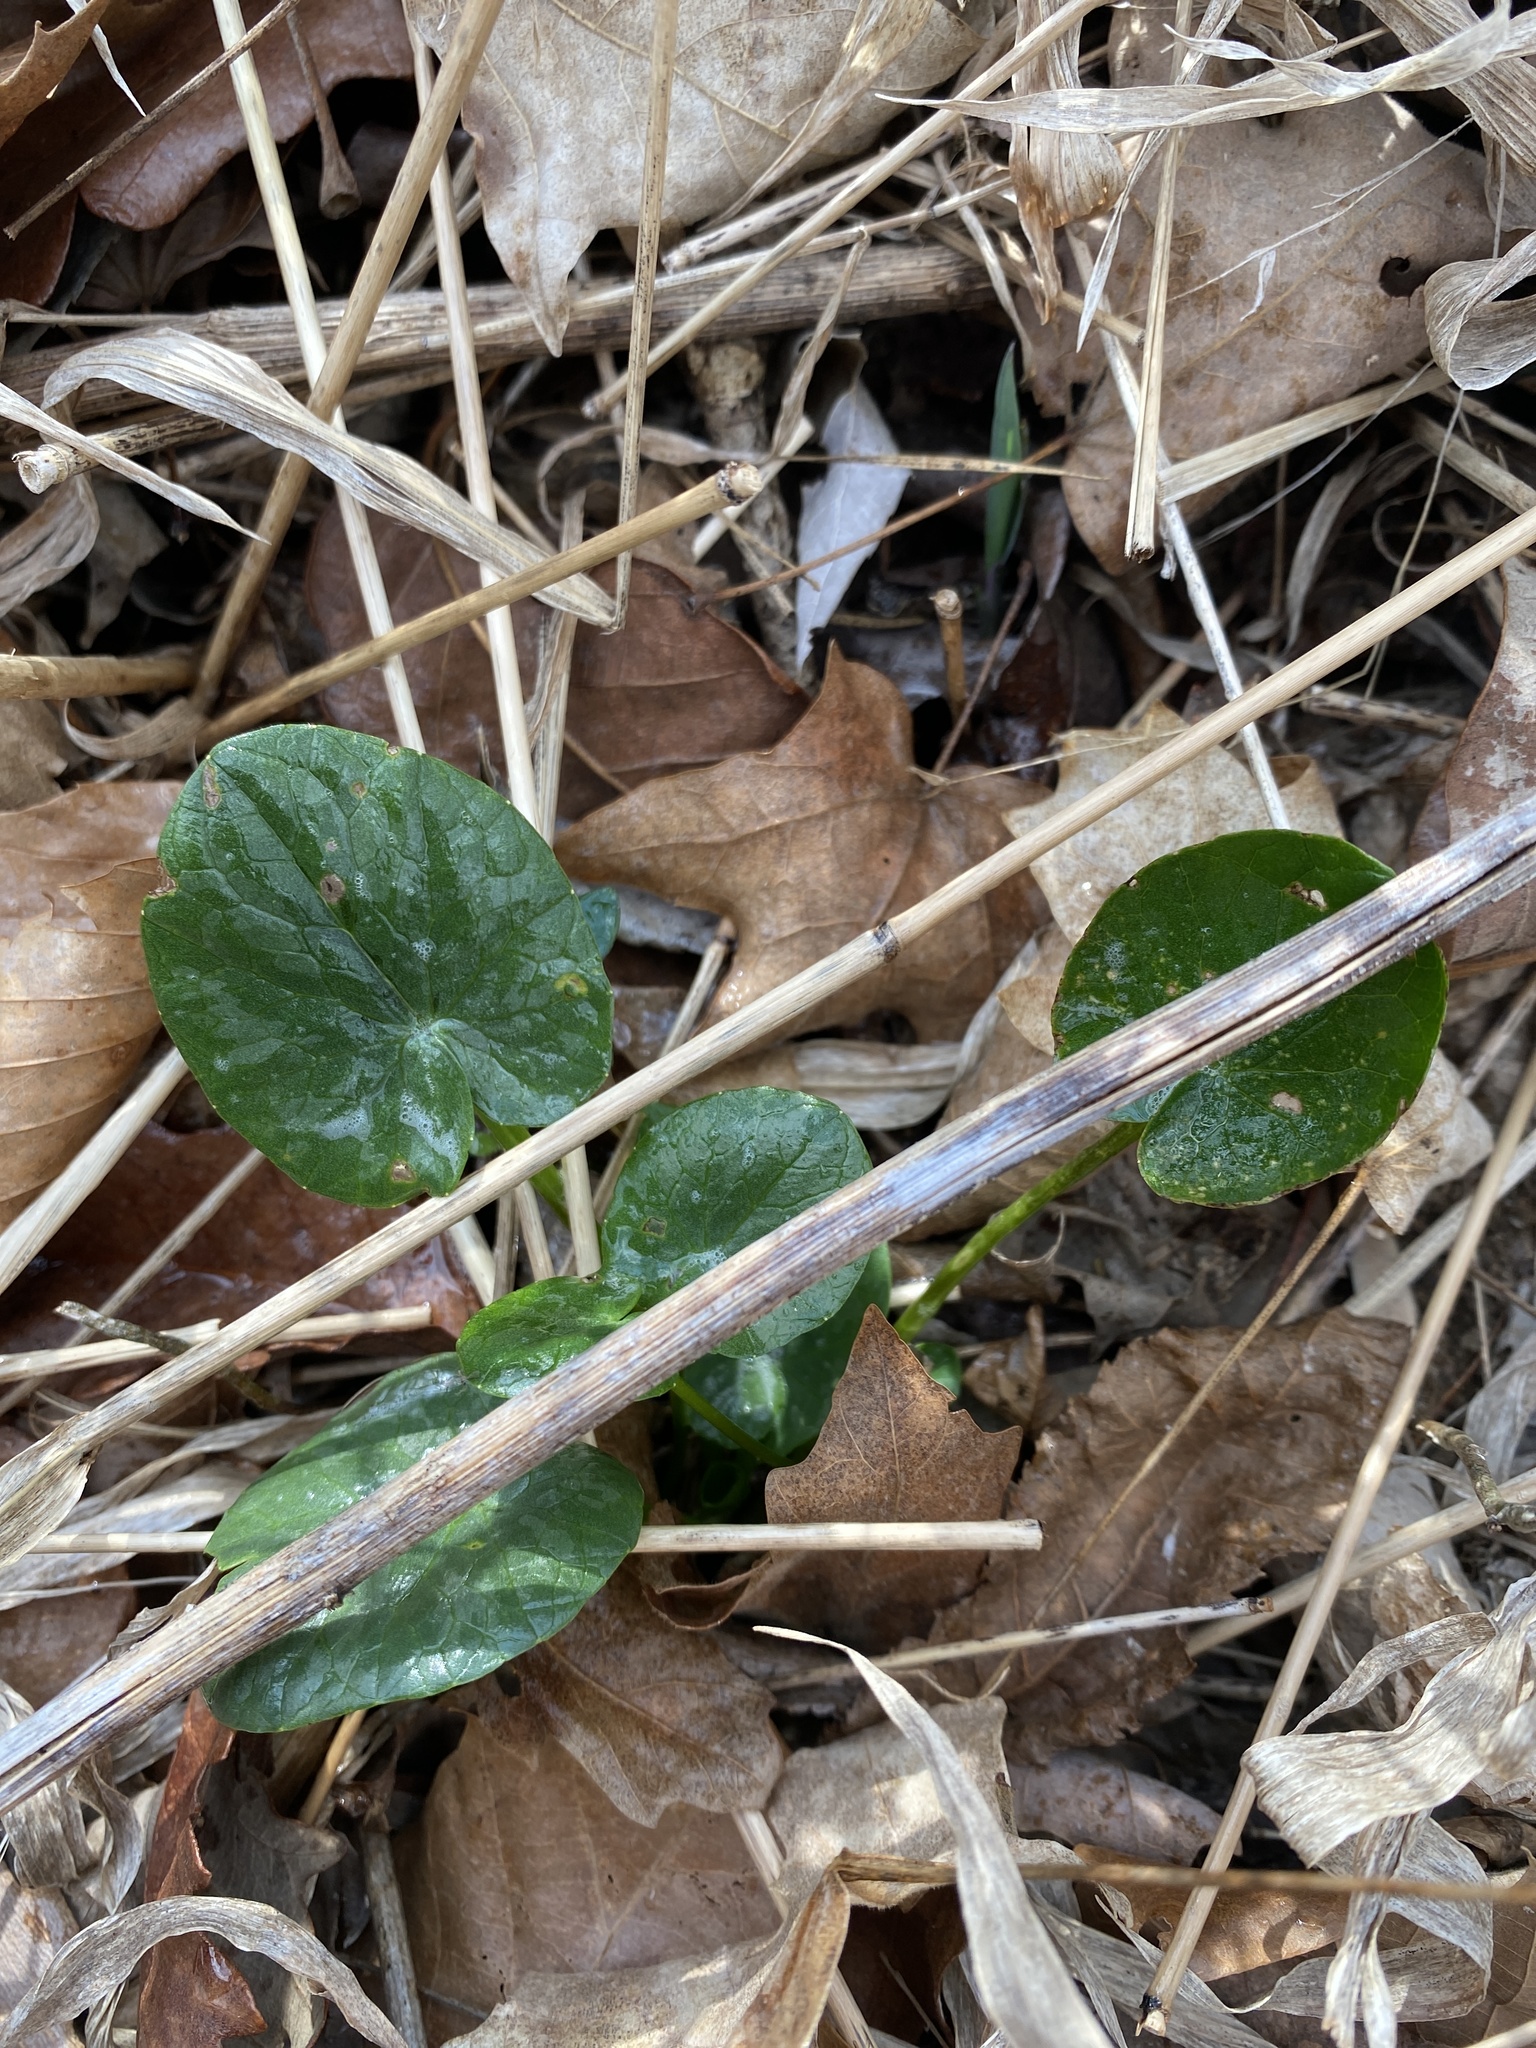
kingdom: Plantae
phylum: Tracheophyta
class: Magnoliopsida
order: Ranunculales
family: Ranunculaceae
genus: Ficaria
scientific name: Ficaria verna
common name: Lesser celandine
